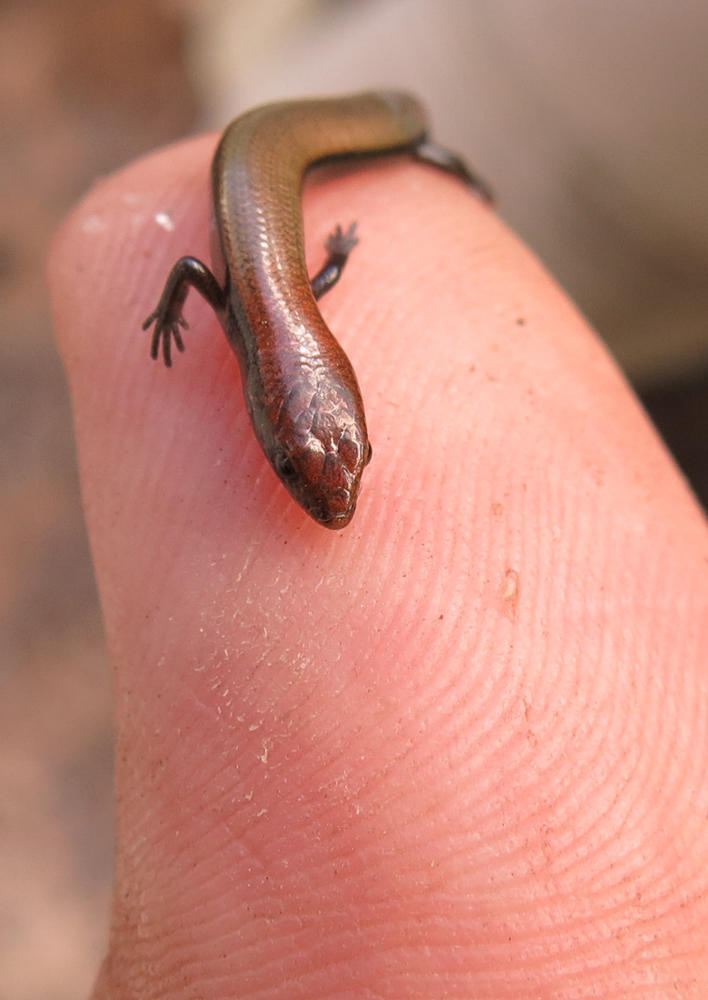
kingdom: Animalia
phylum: Chordata
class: Squamata
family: Scincidae
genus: Panaspis
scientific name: Panaspis wahlbergii
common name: Angolan snake-eyed skink
